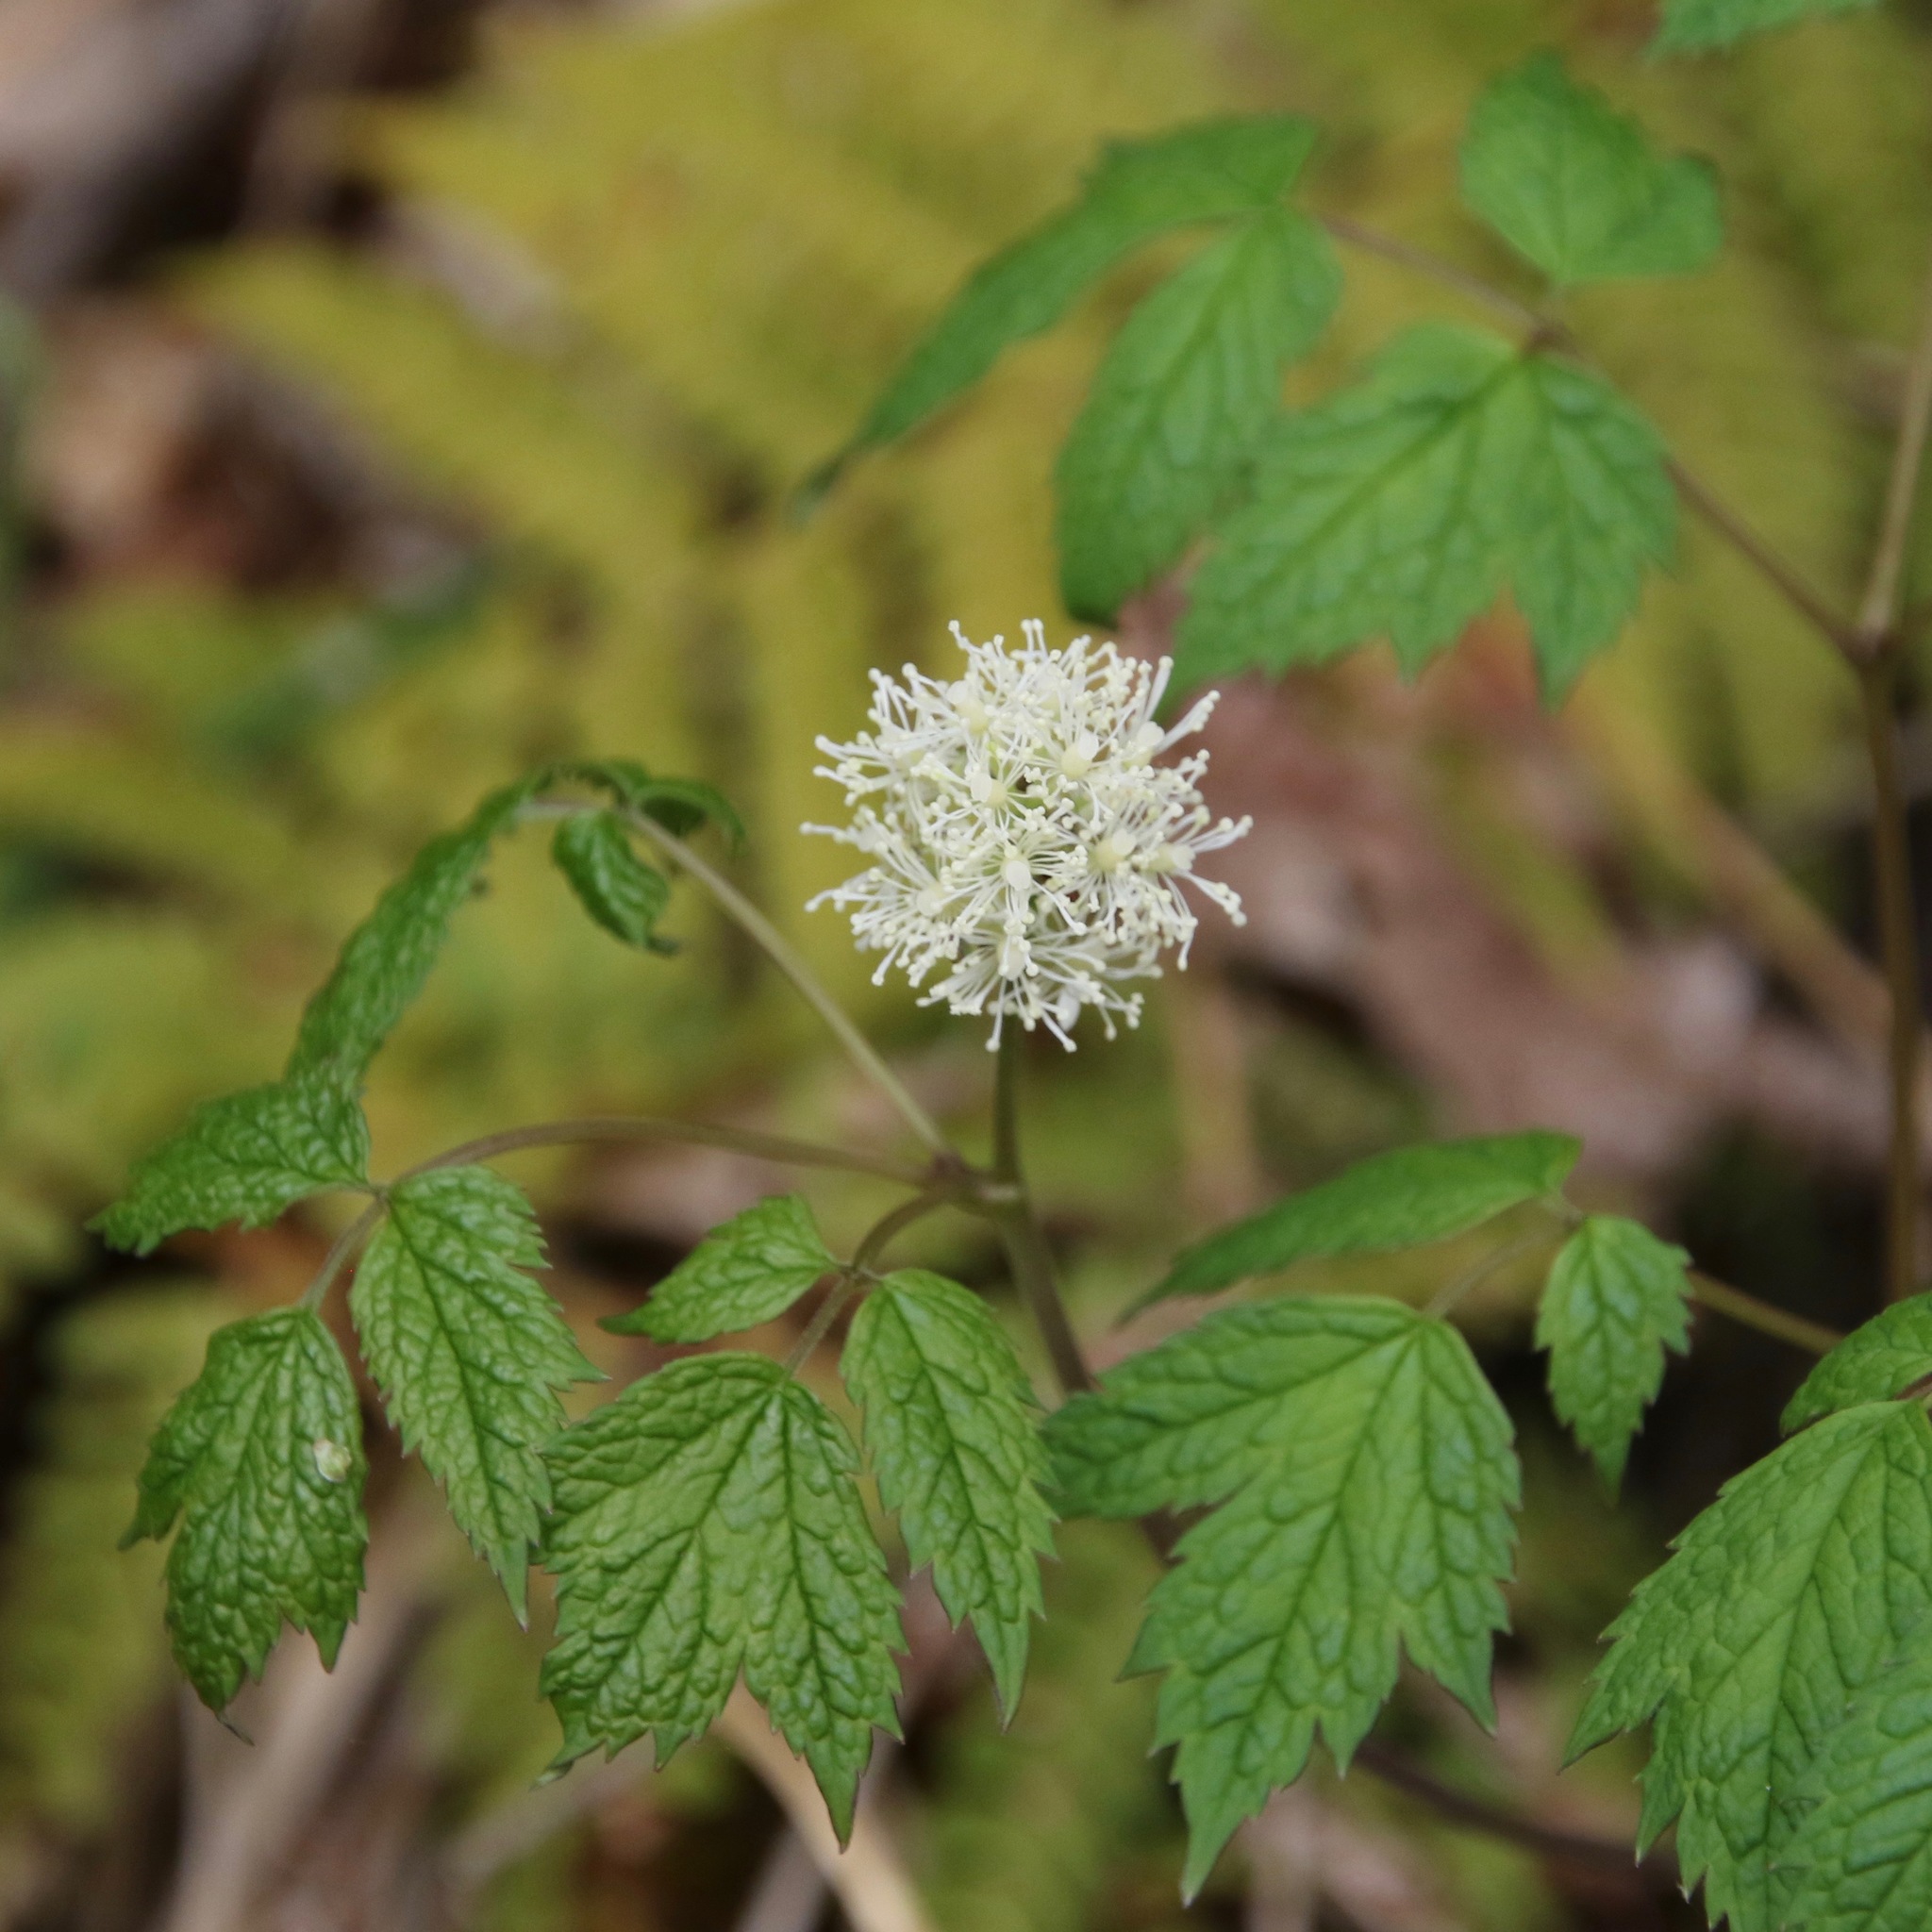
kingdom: Plantae
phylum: Tracheophyta
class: Magnoliopsida
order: Ranunculales
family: Ranunculaceae
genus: Actaea
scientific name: Actaea rubra
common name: Red baneberry
